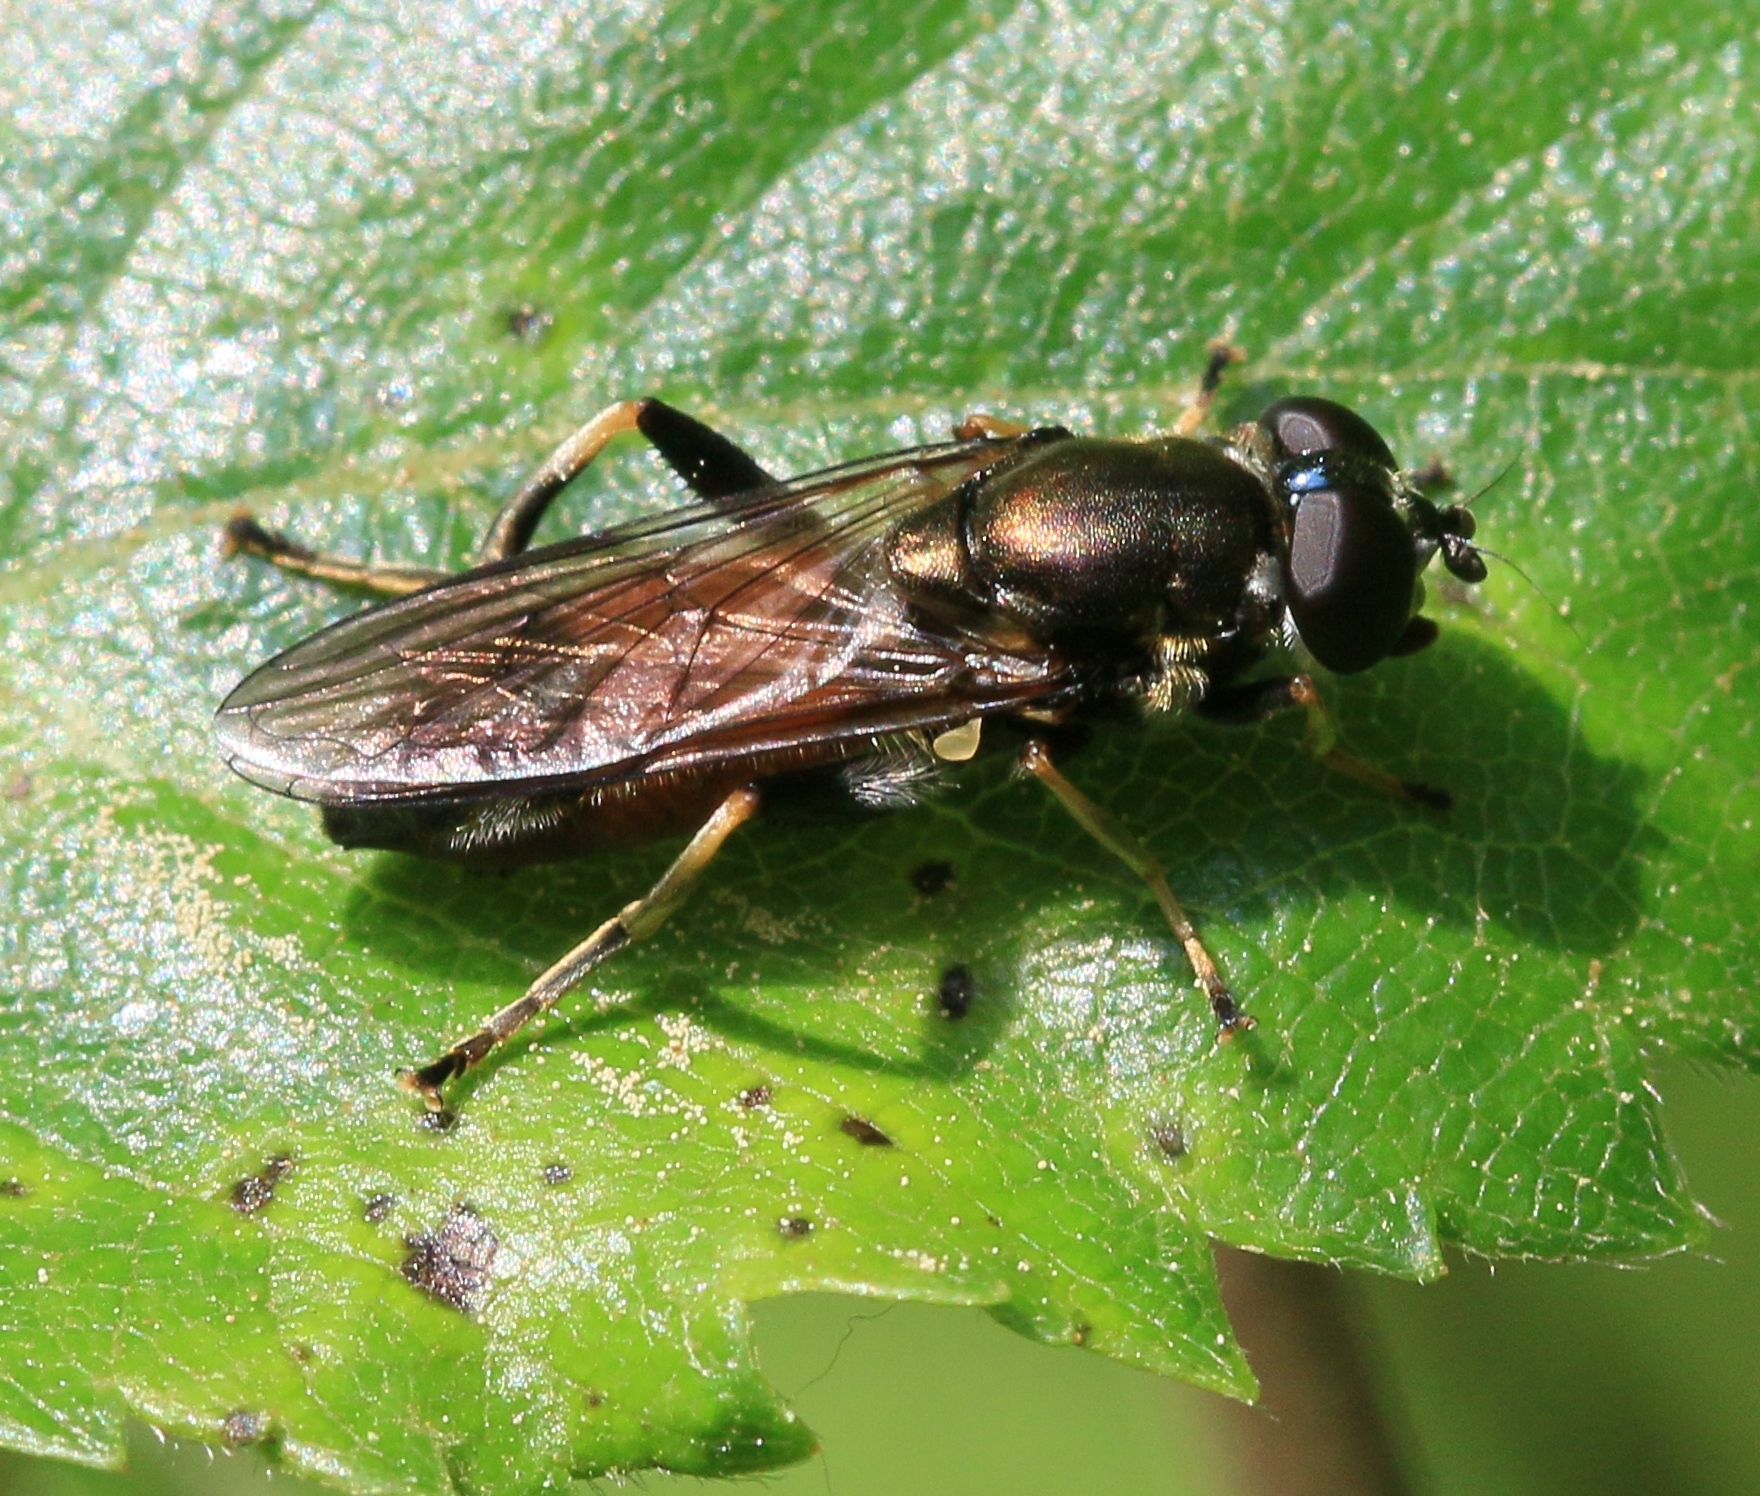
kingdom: Animalia
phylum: Arthropoda
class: Insecta
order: Diptera
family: Syrphidae
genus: Xylota
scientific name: Xylota segnis
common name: Brown-toed forest fly
